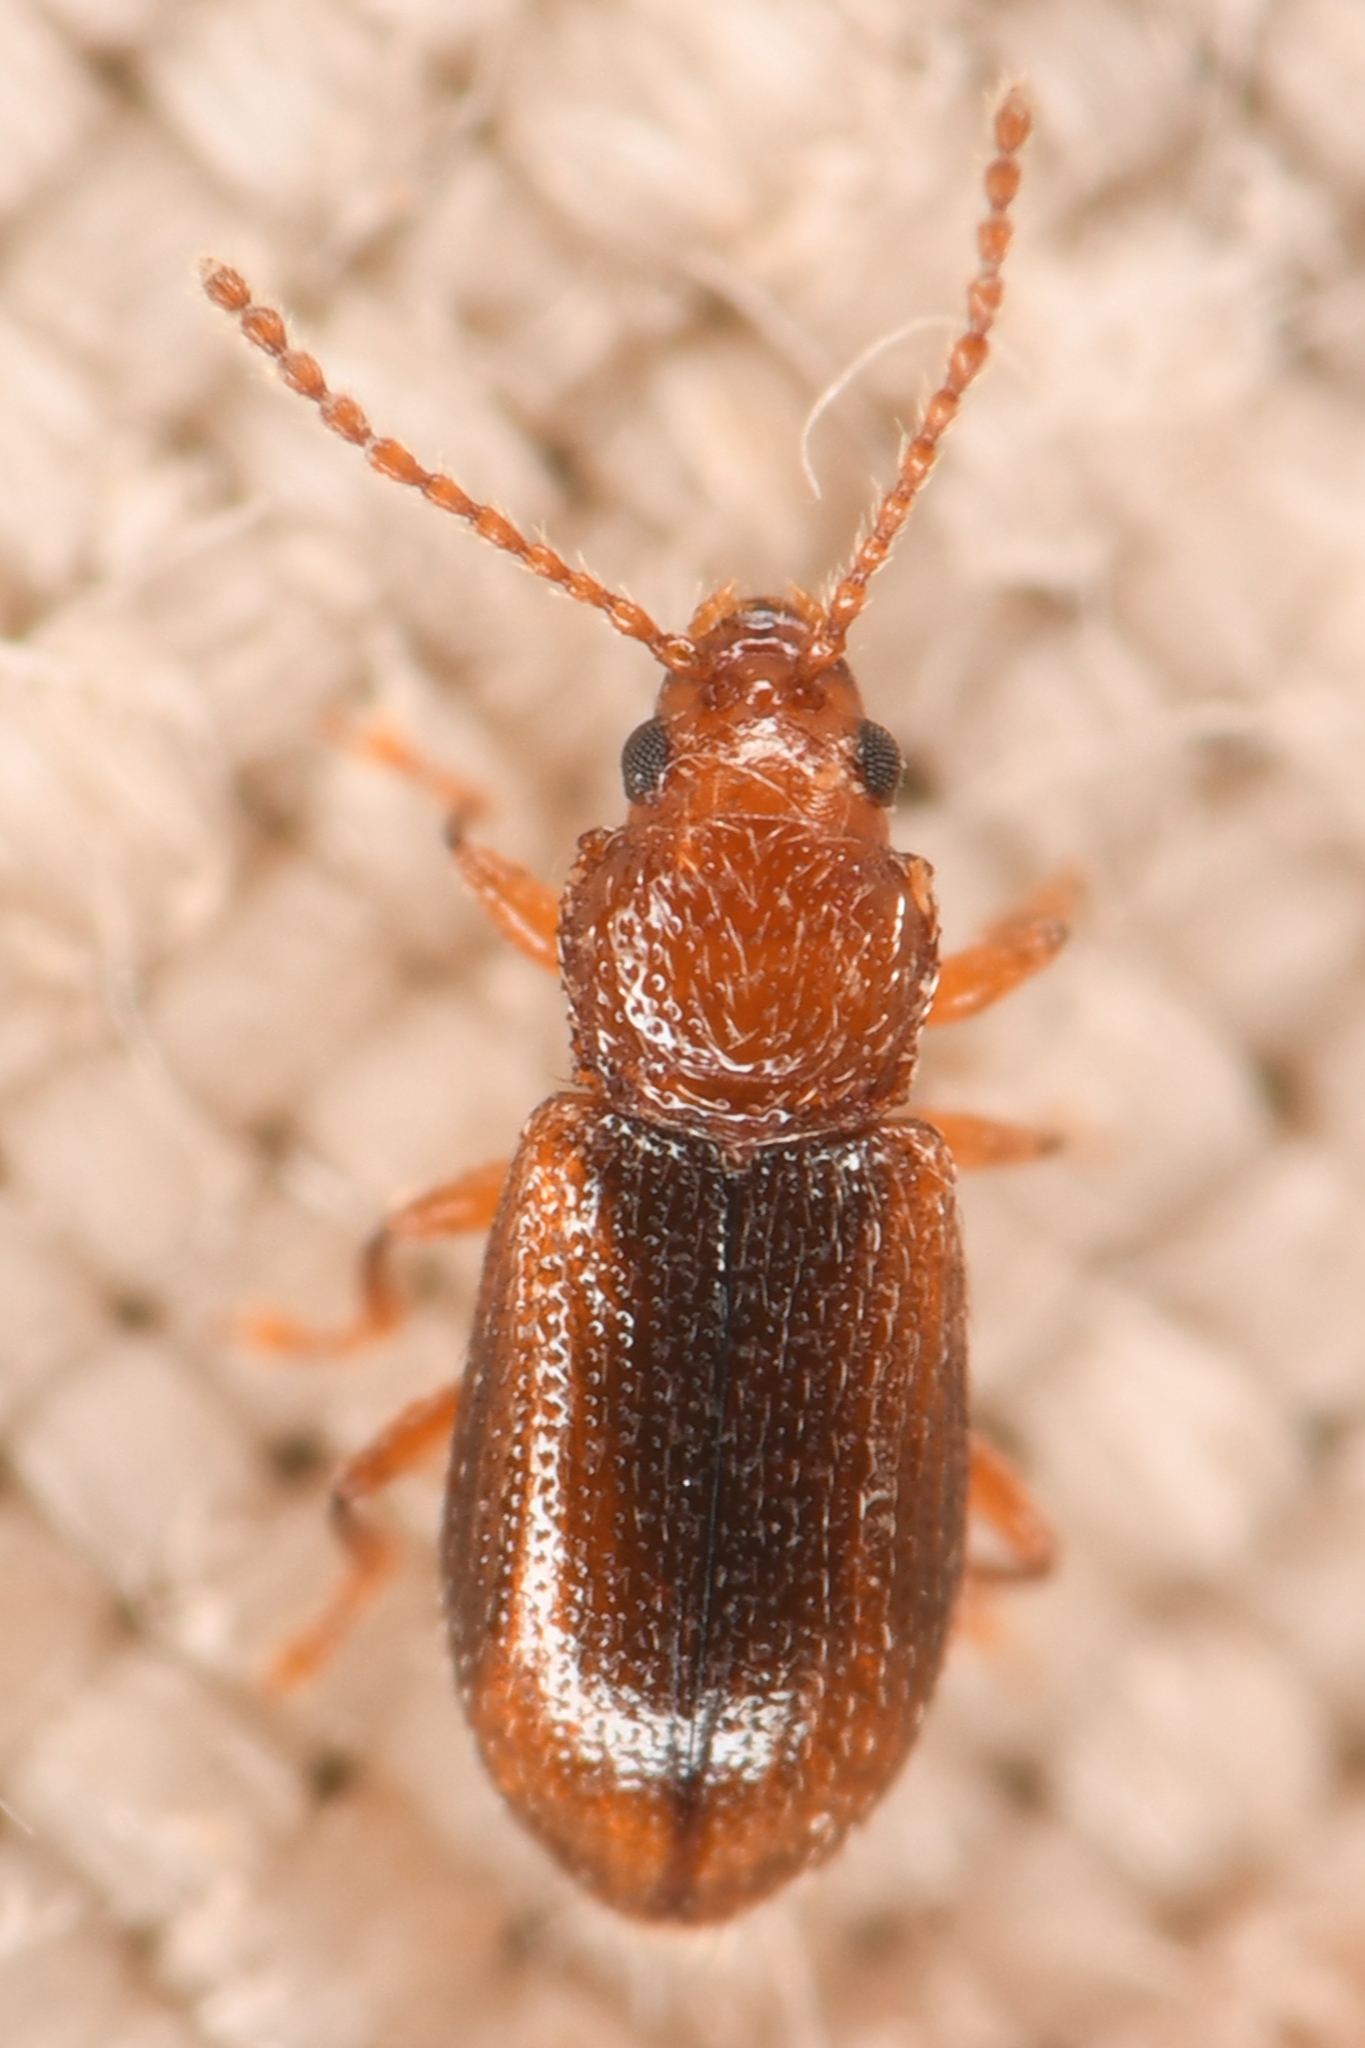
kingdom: Animalia
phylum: Arthropoda
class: Insecta
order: Coleoptera
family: Chrysomelidae
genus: Aulacothorax
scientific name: Aulacothorax
